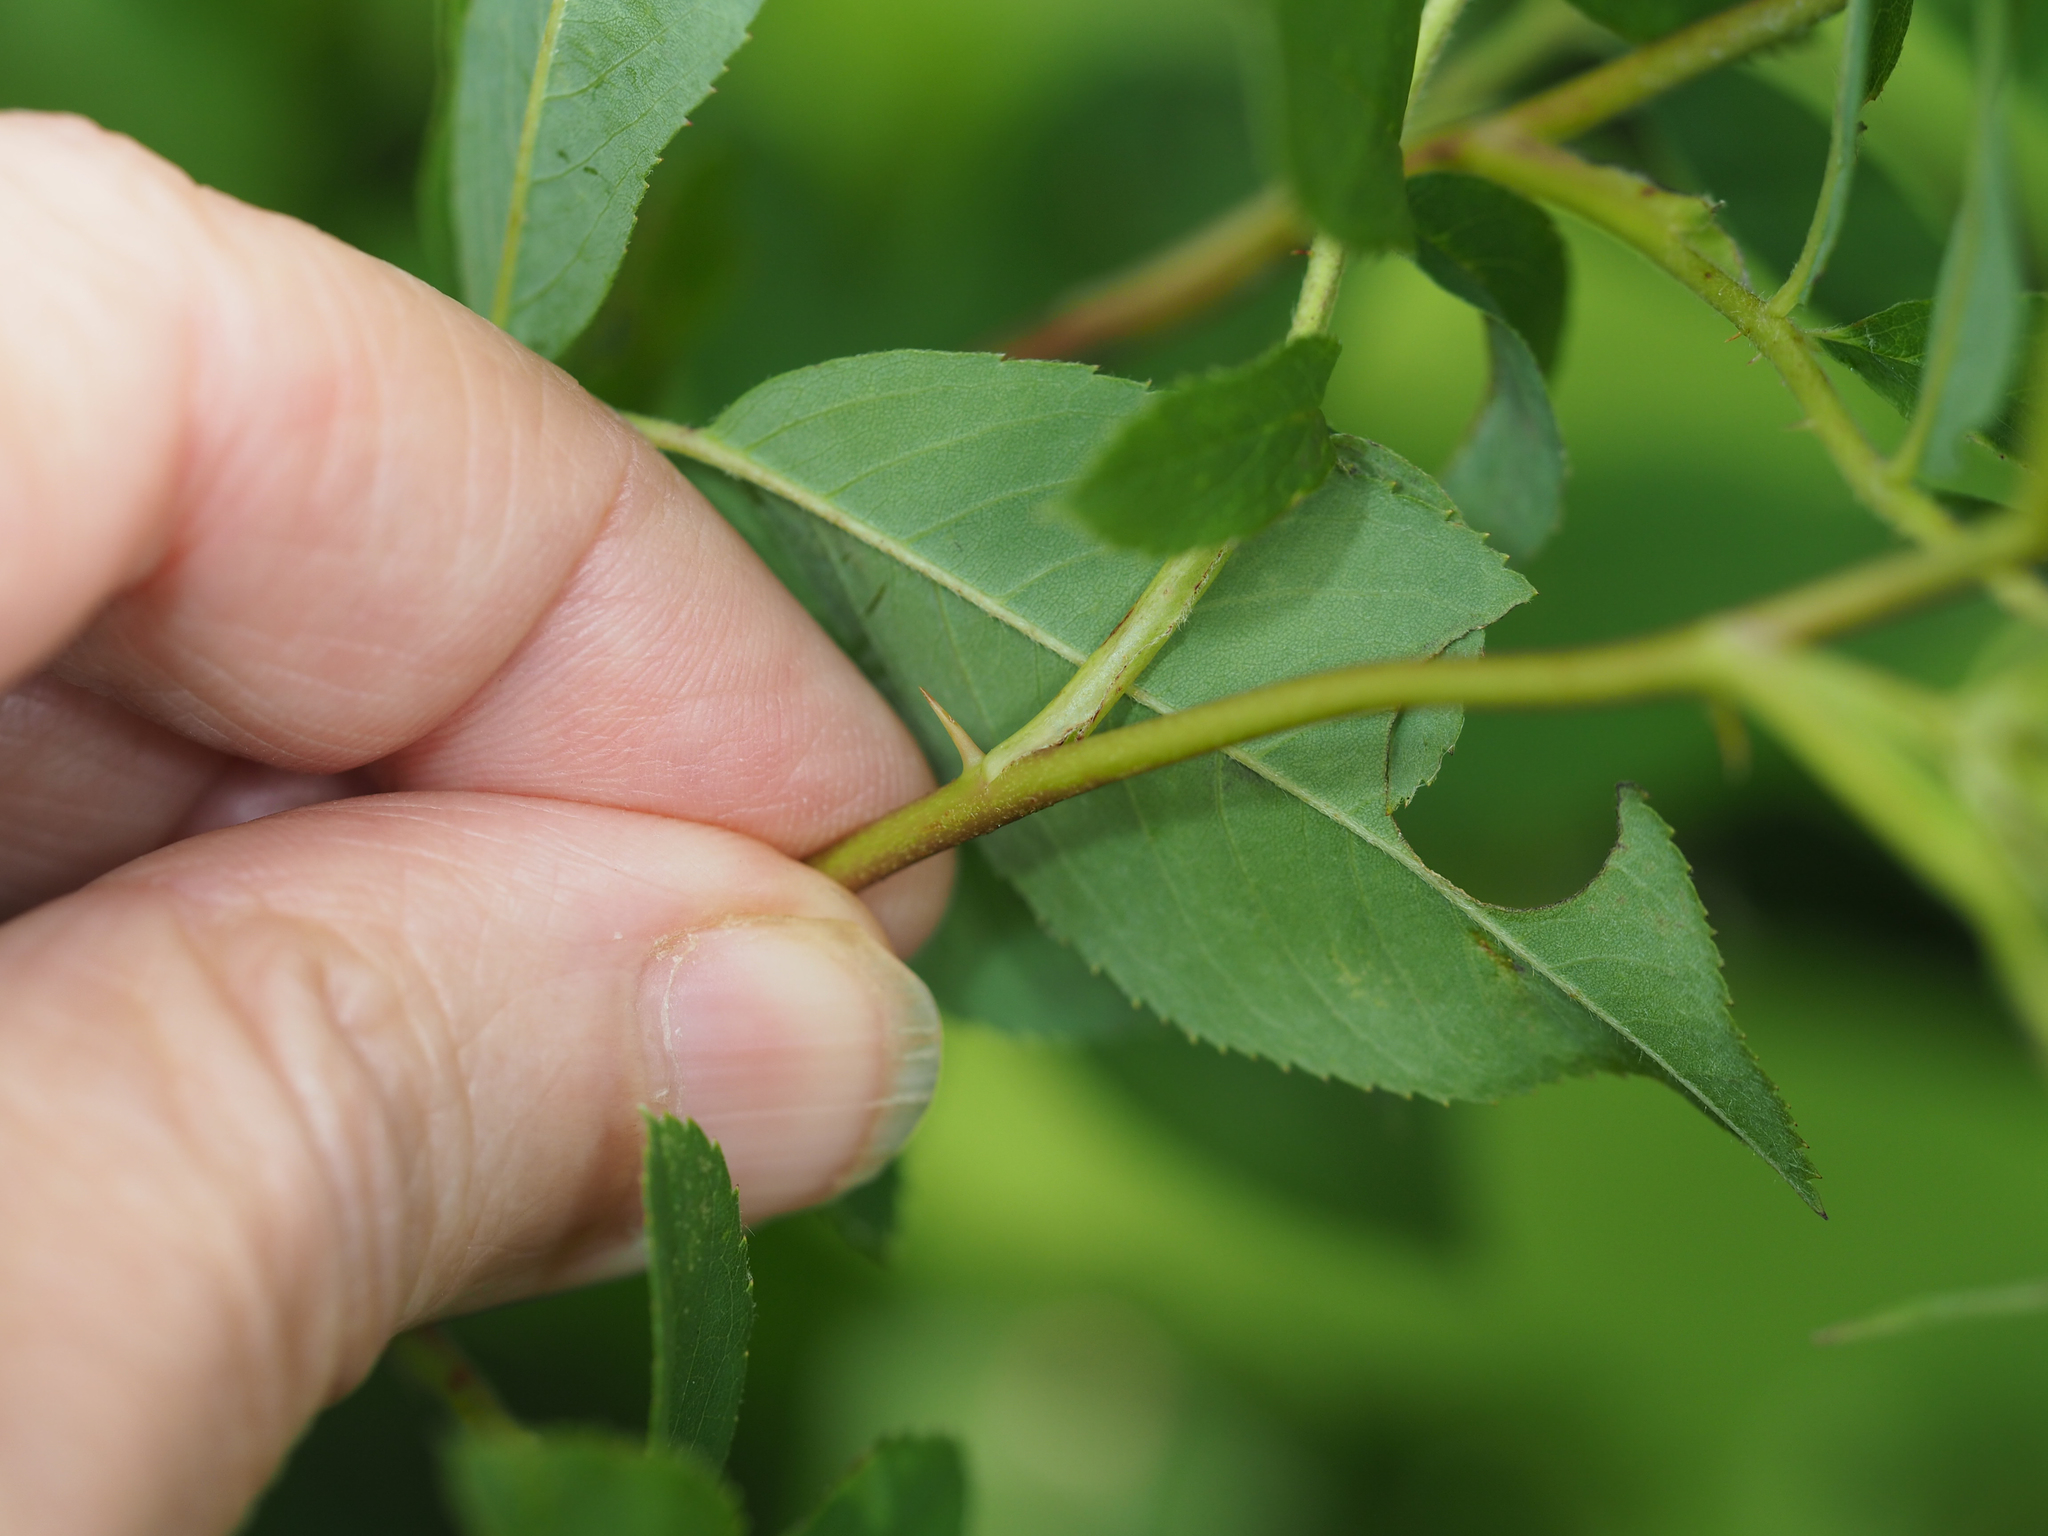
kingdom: Plantae
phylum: Tracheophyta
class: Magnoliopsida
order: Rosales
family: Rosaceae
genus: Rosa
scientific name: Rosa palustris
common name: Swamp rose
